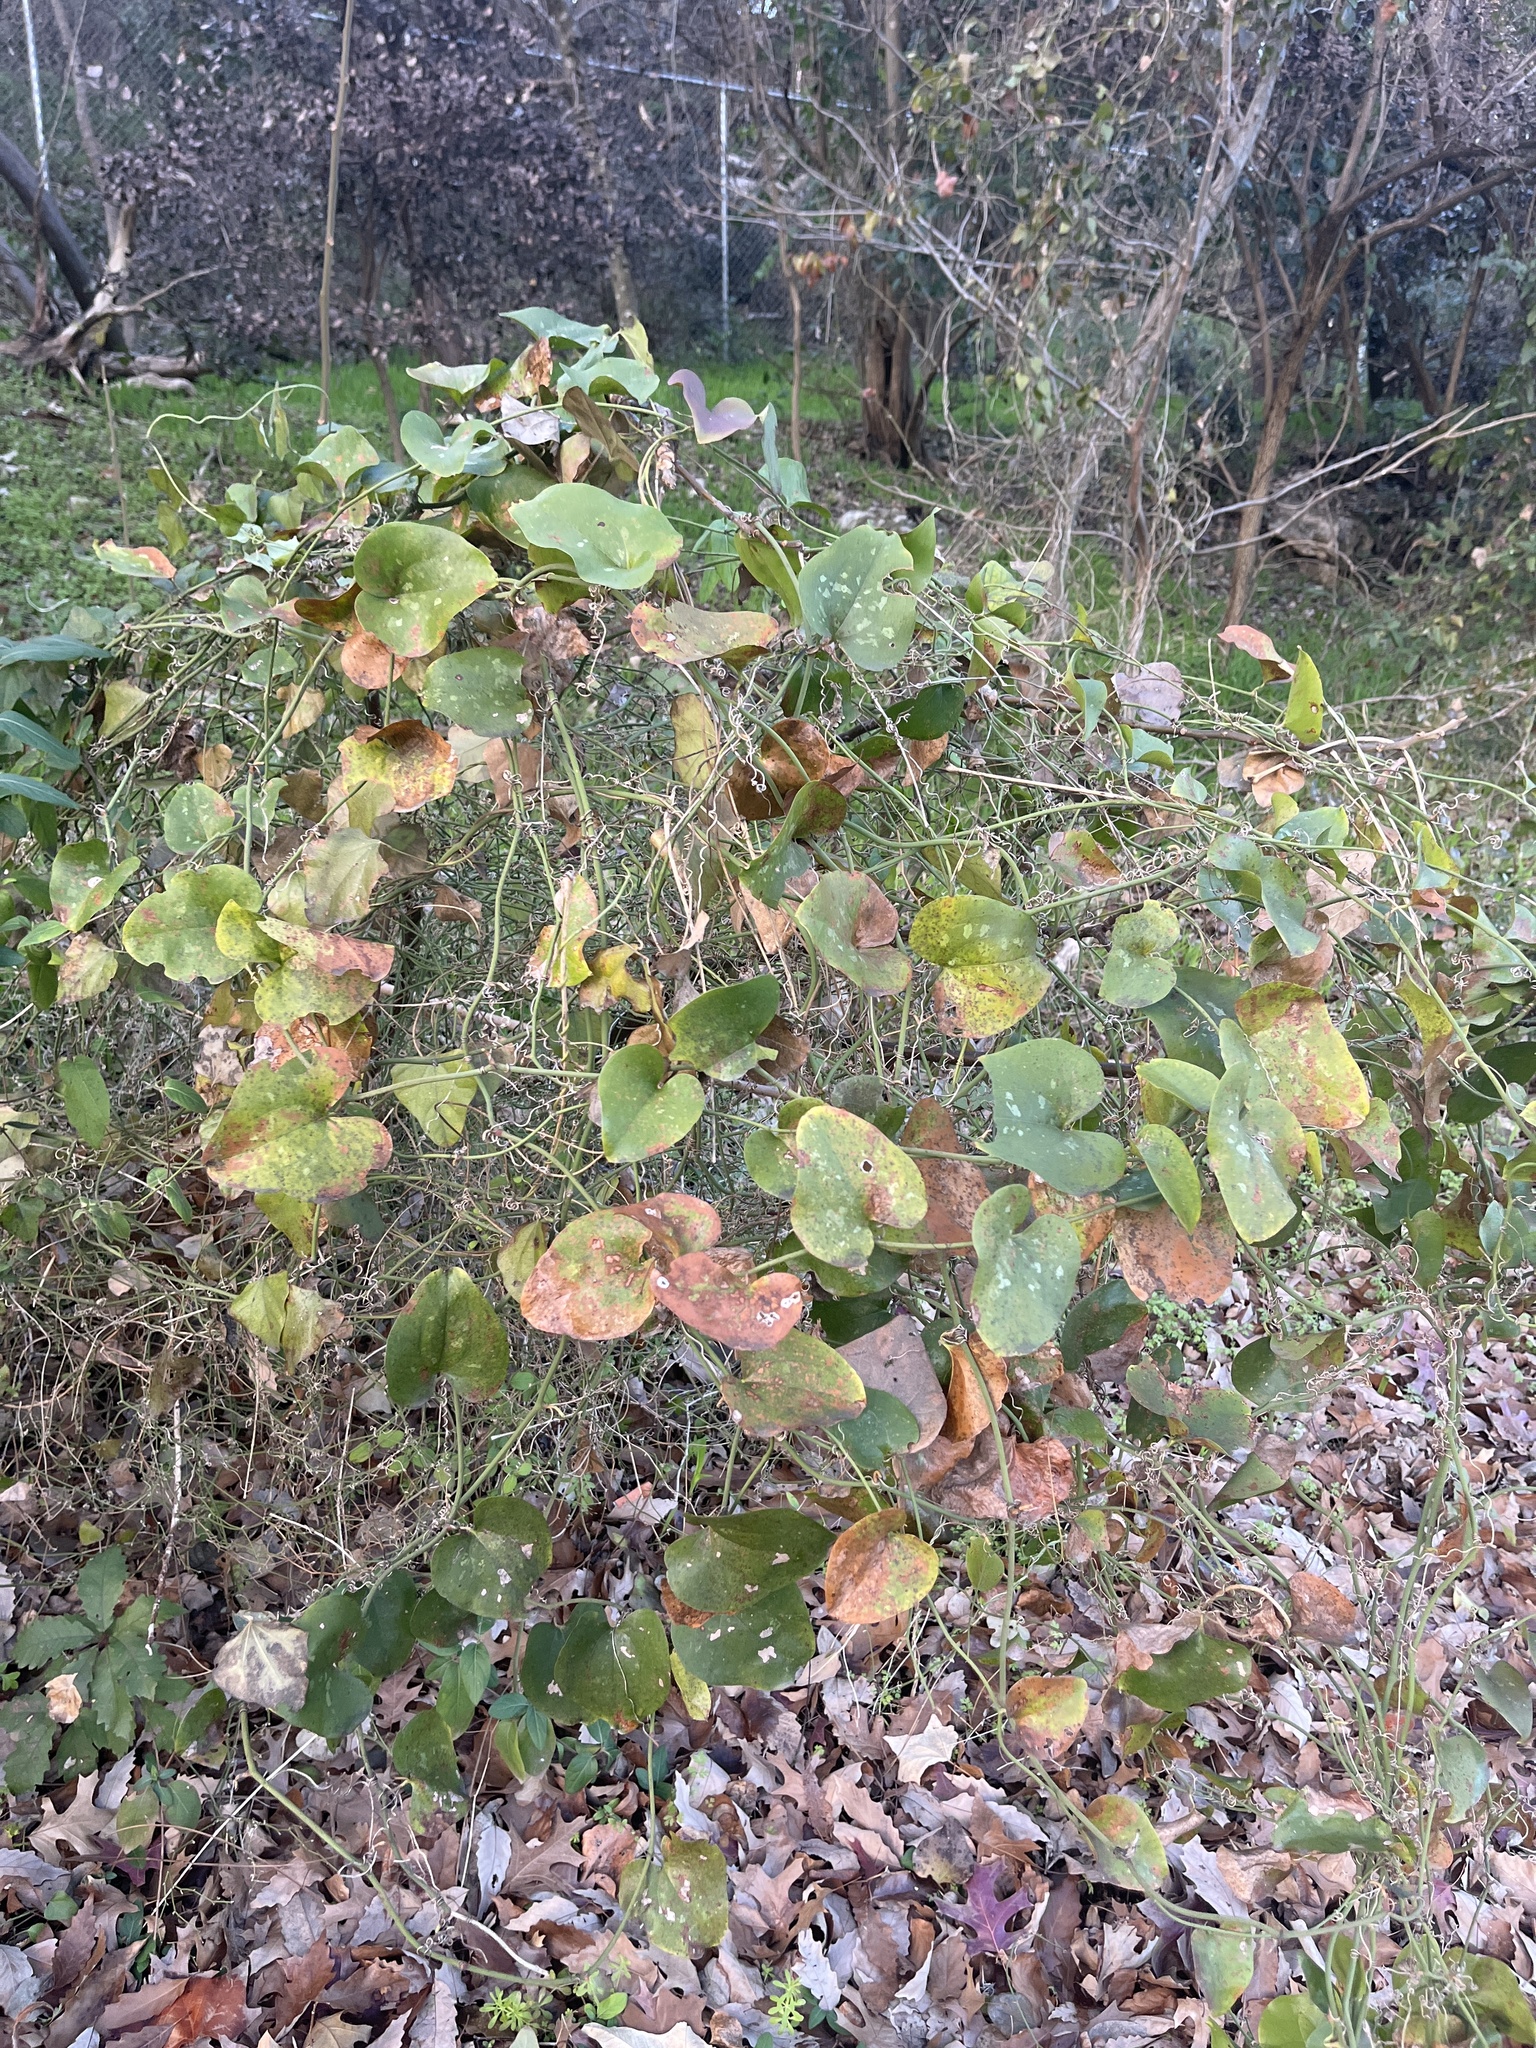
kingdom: Plantae
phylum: Tracheophyta
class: Liliopsida
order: Liliales
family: Smilacaceae
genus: Smilax
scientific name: Smilax bona-nox
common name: Catbrier
